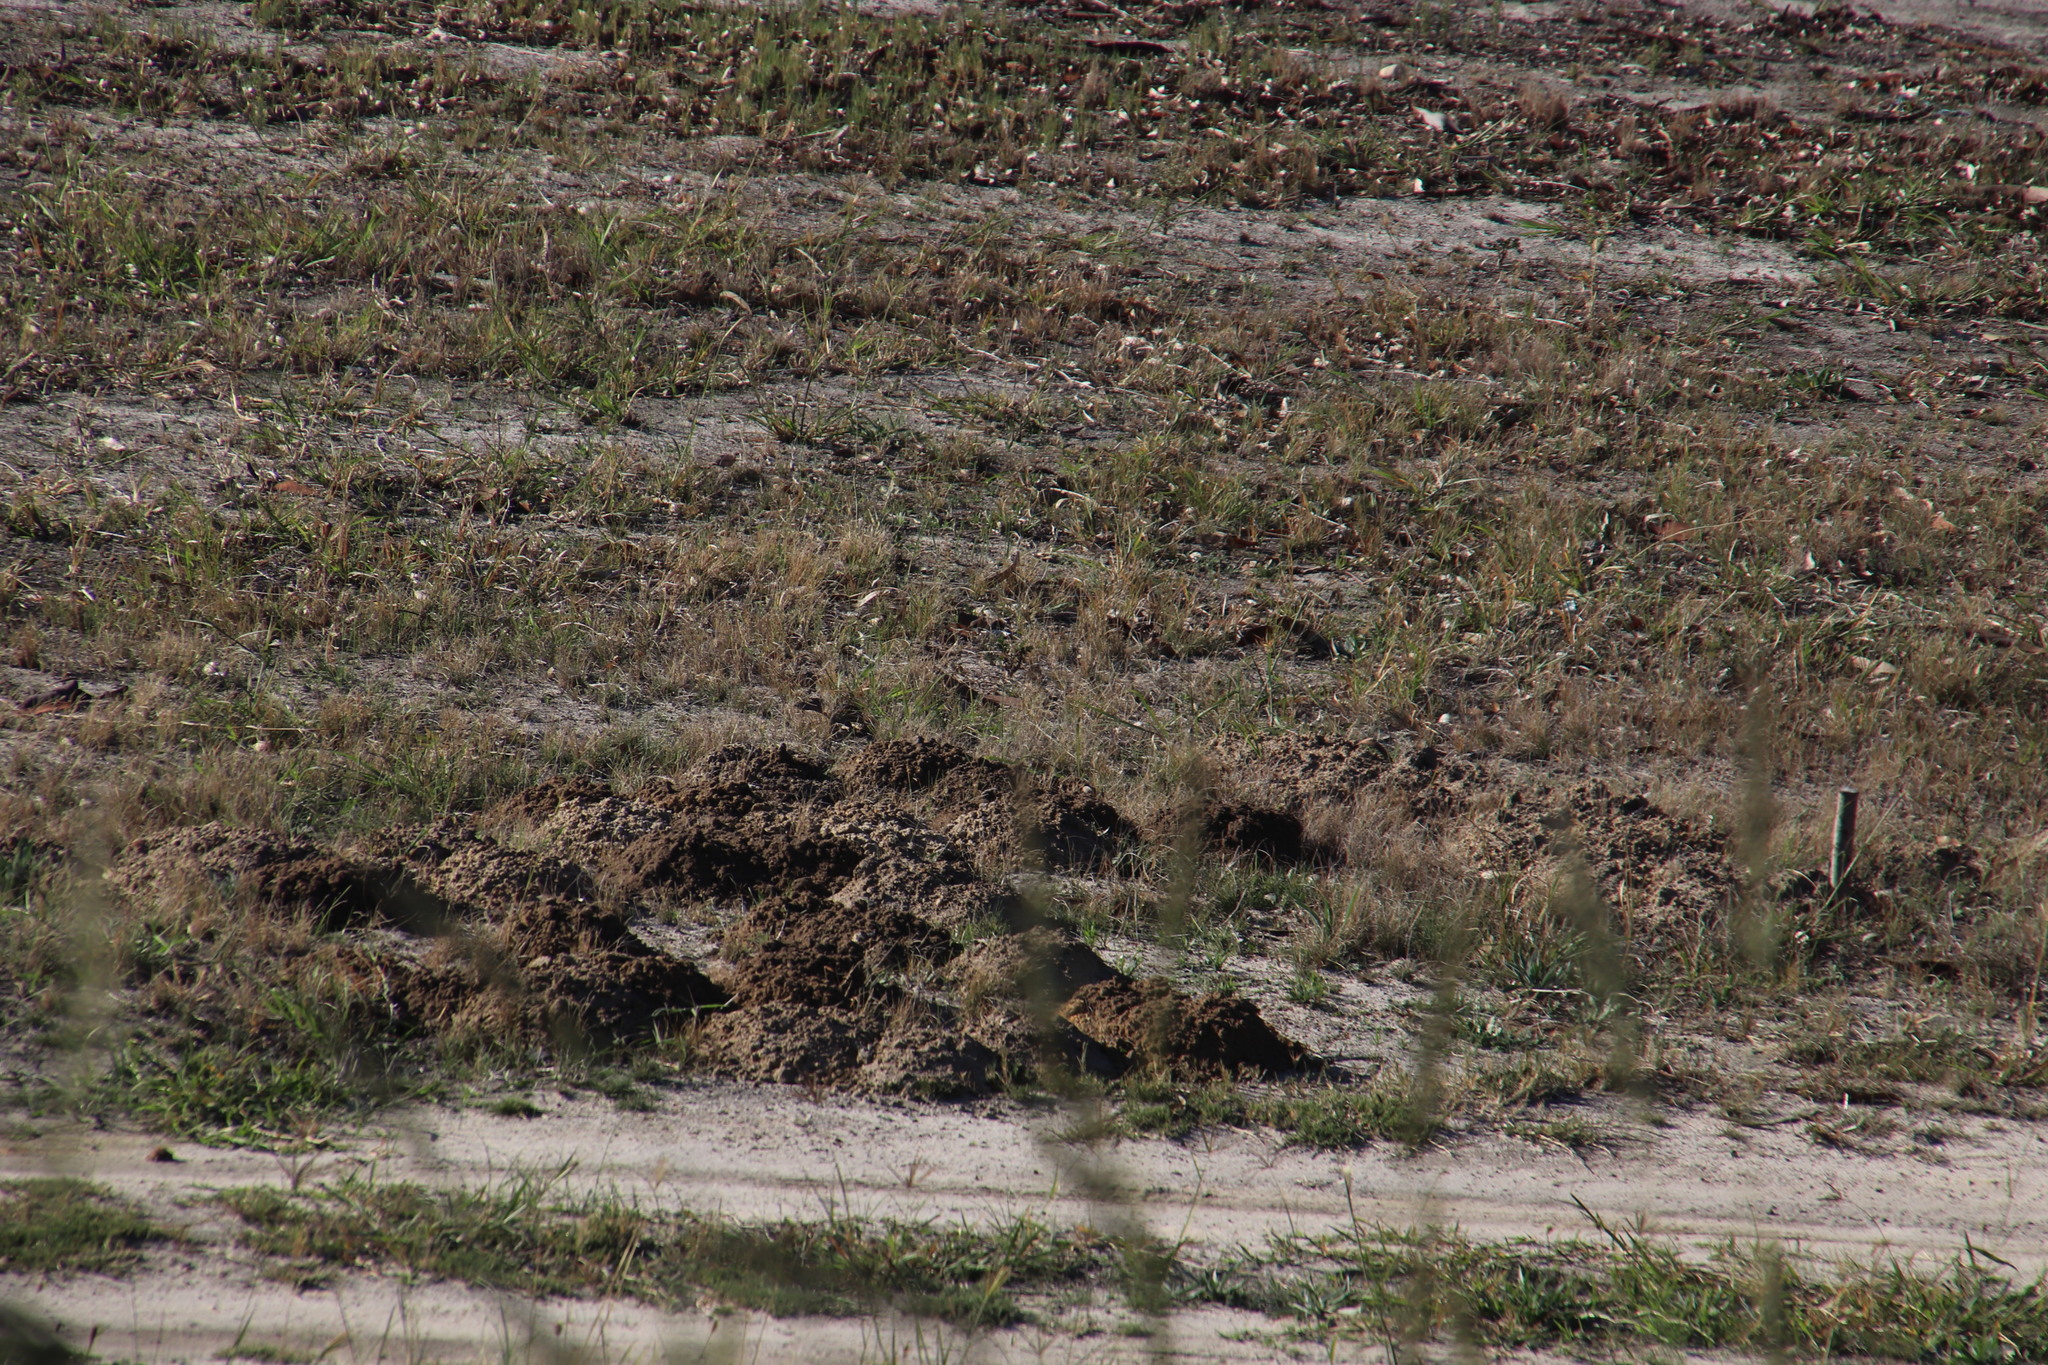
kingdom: Animalia
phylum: Chordata
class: Mammalia
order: Rodentia
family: Bathyergidae
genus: Bathyergus
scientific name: Bathyergus suillus
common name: Cape dune mole rat
